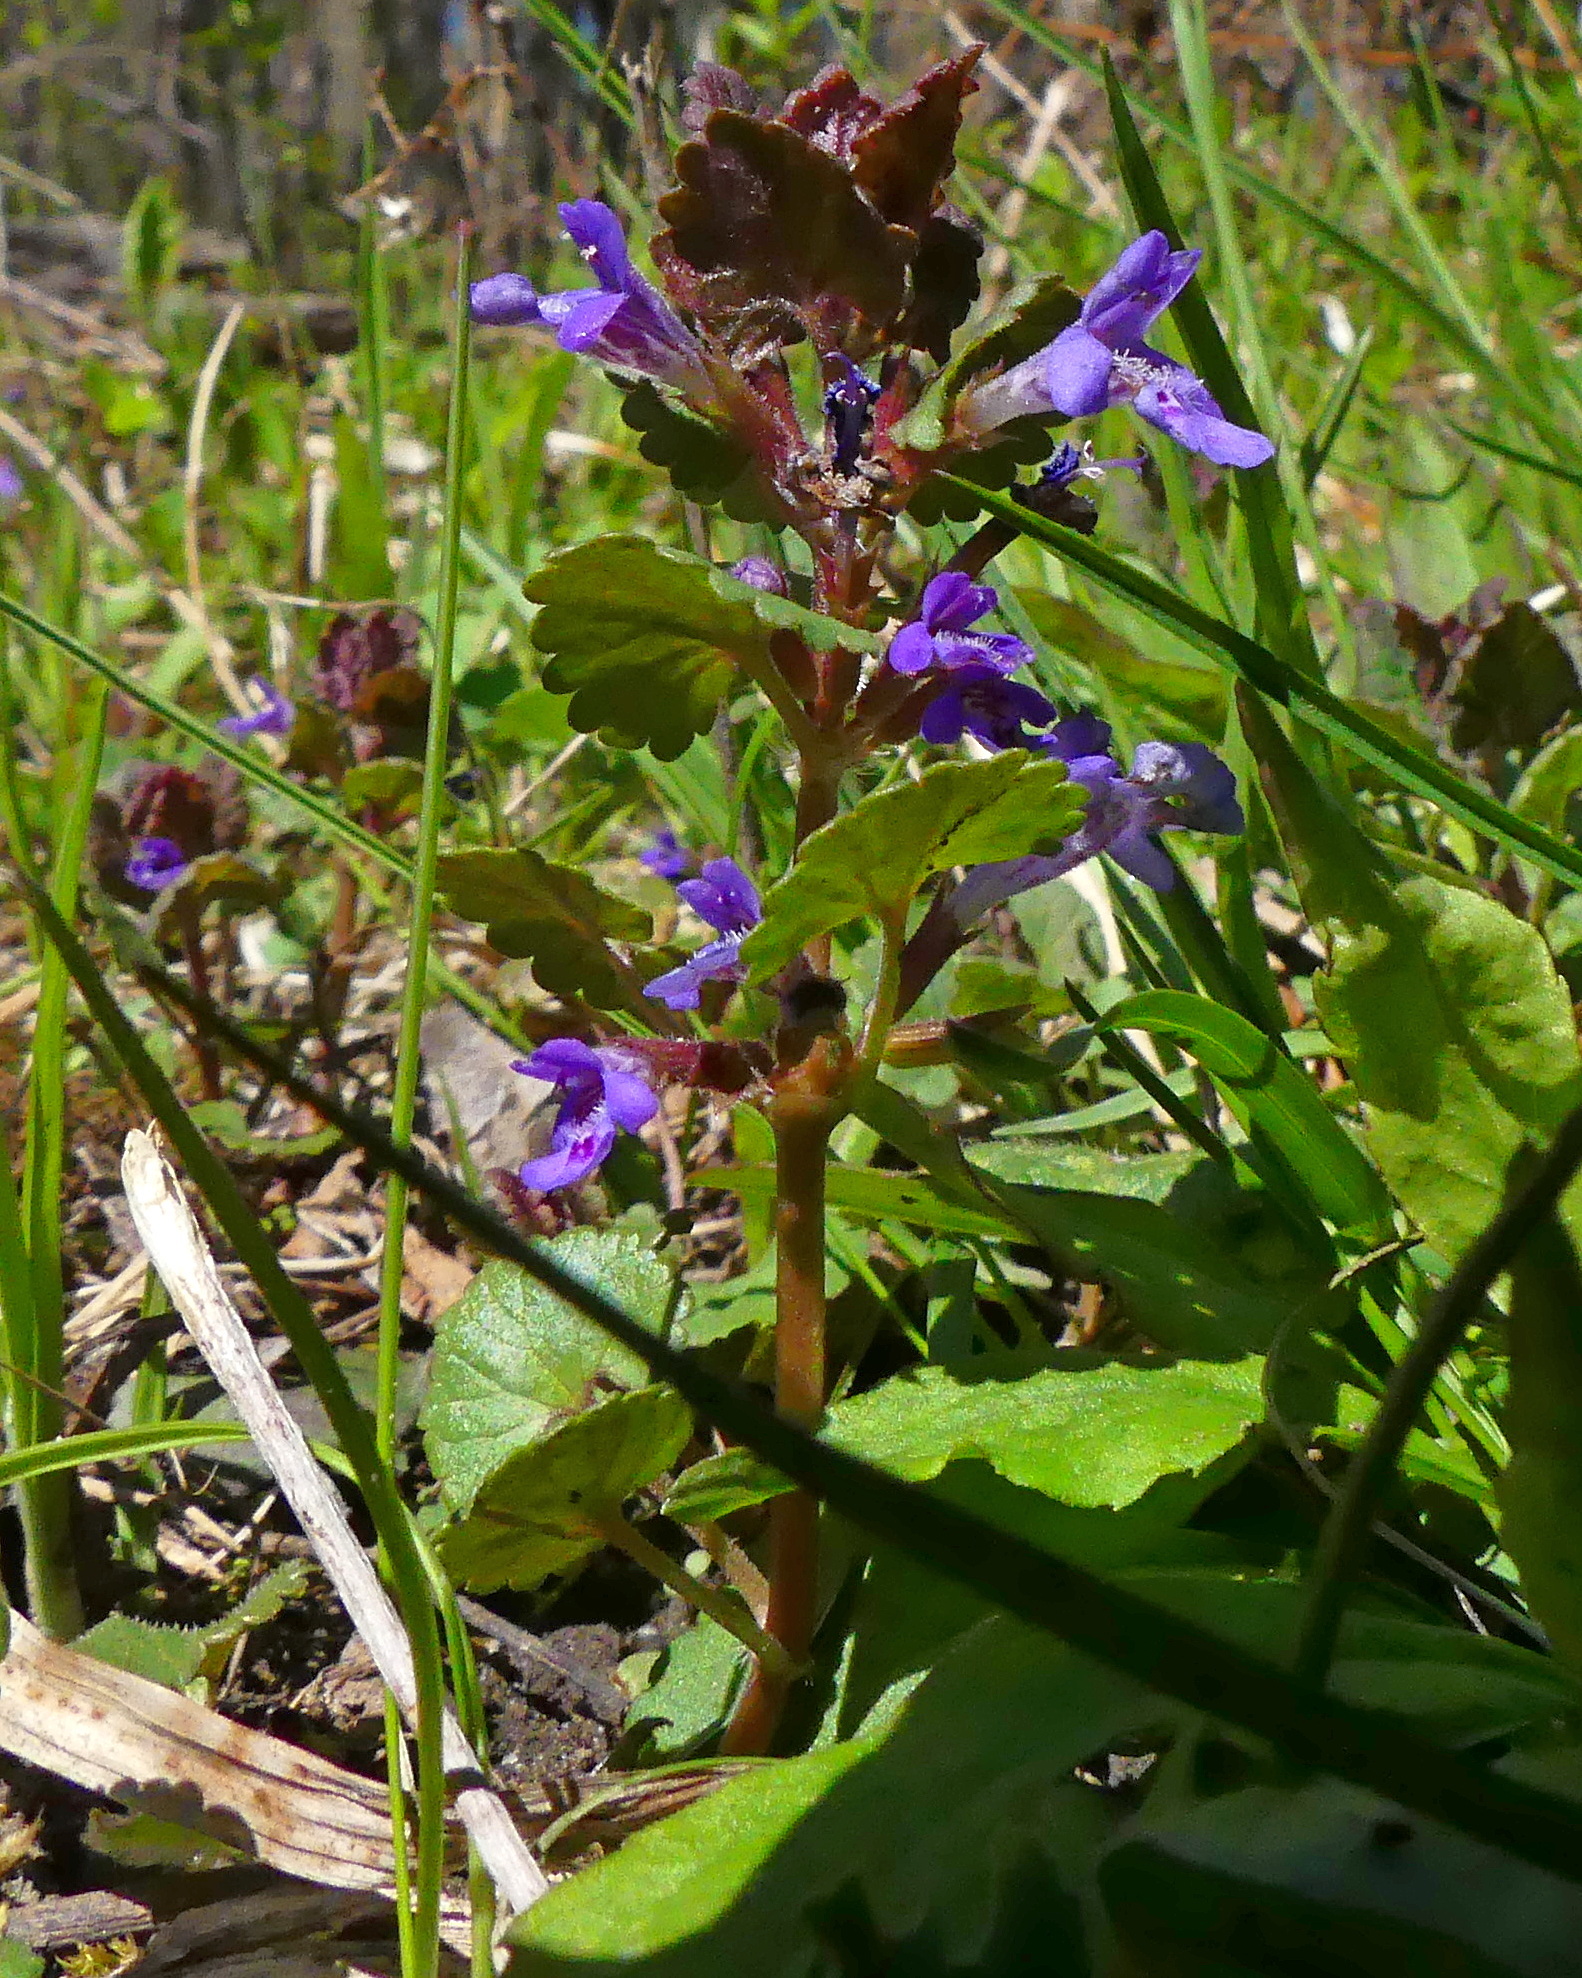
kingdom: Plantae
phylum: Tracheophyta
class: Magnoliopsida
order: Lamiales
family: Lamiaceae
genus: Glechoma
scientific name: Glechoma hederacea
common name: Ground ivy
